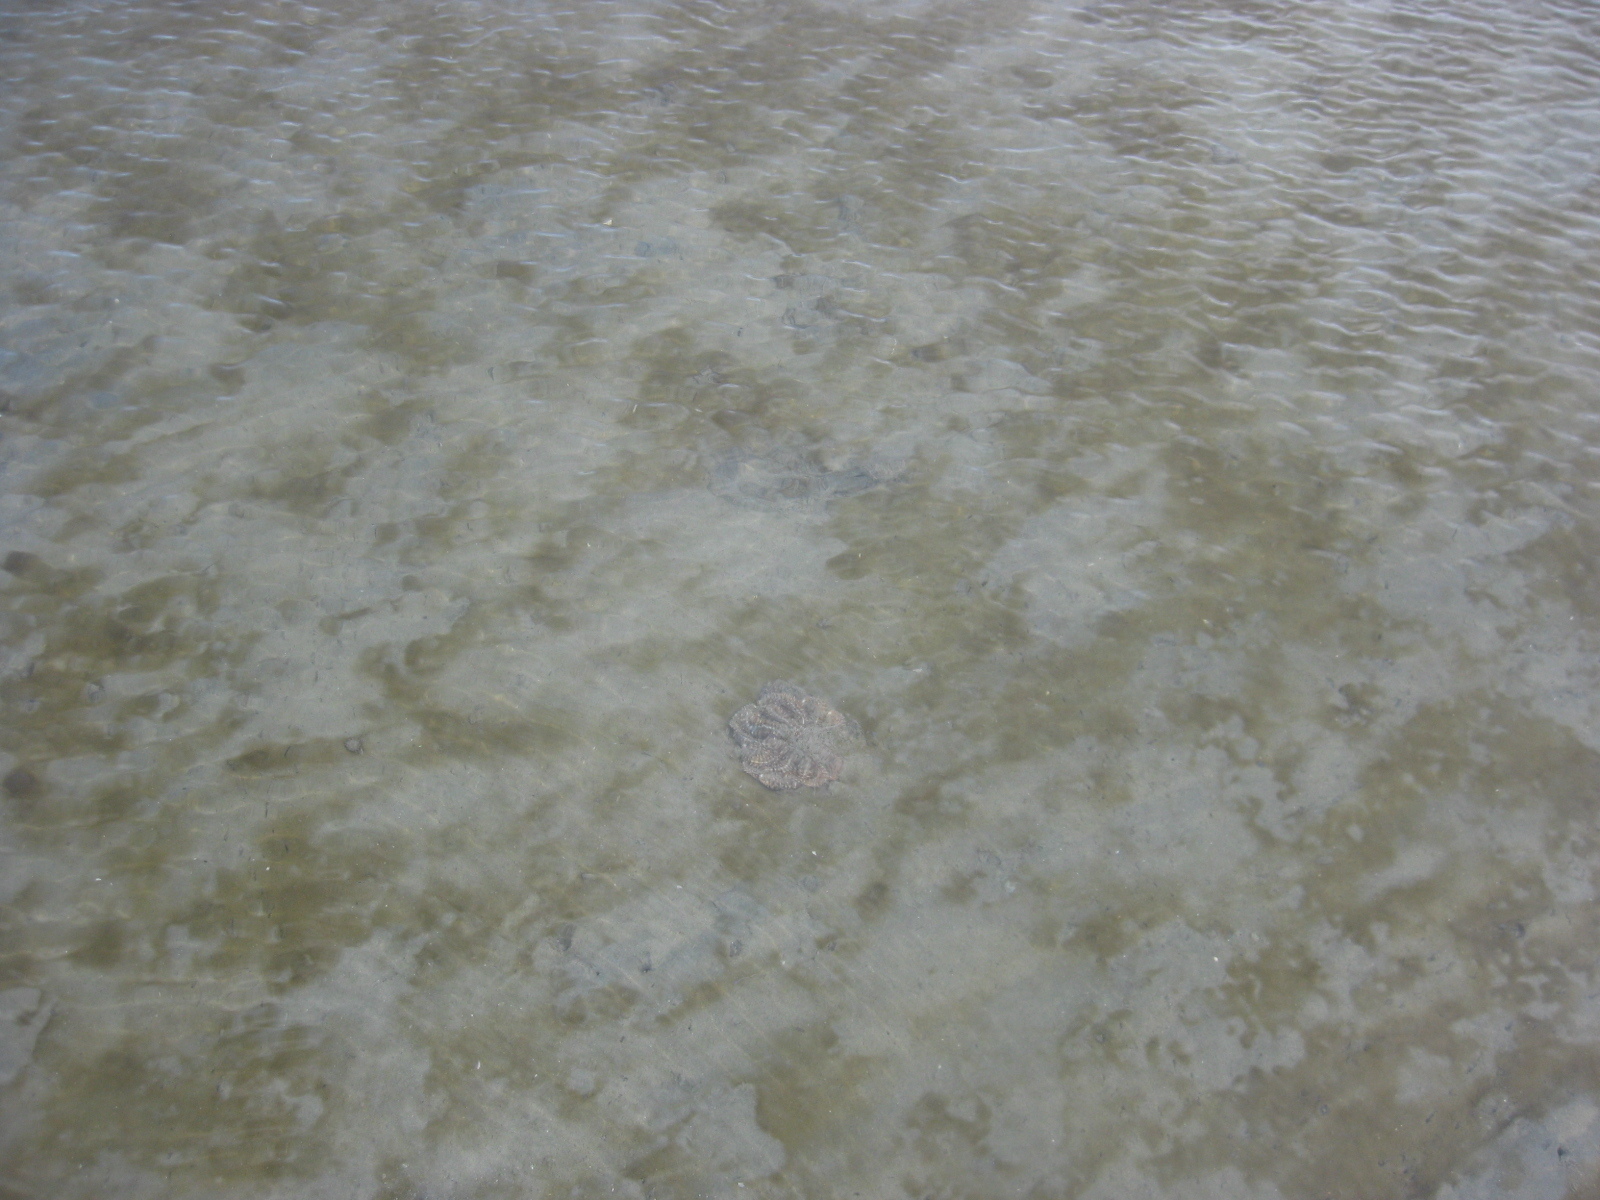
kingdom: Animalia
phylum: Echinodermata
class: Asteroidea
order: Forcipulatida
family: Asteriidae
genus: Coscinasterias
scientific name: Coscinasterias muricata
